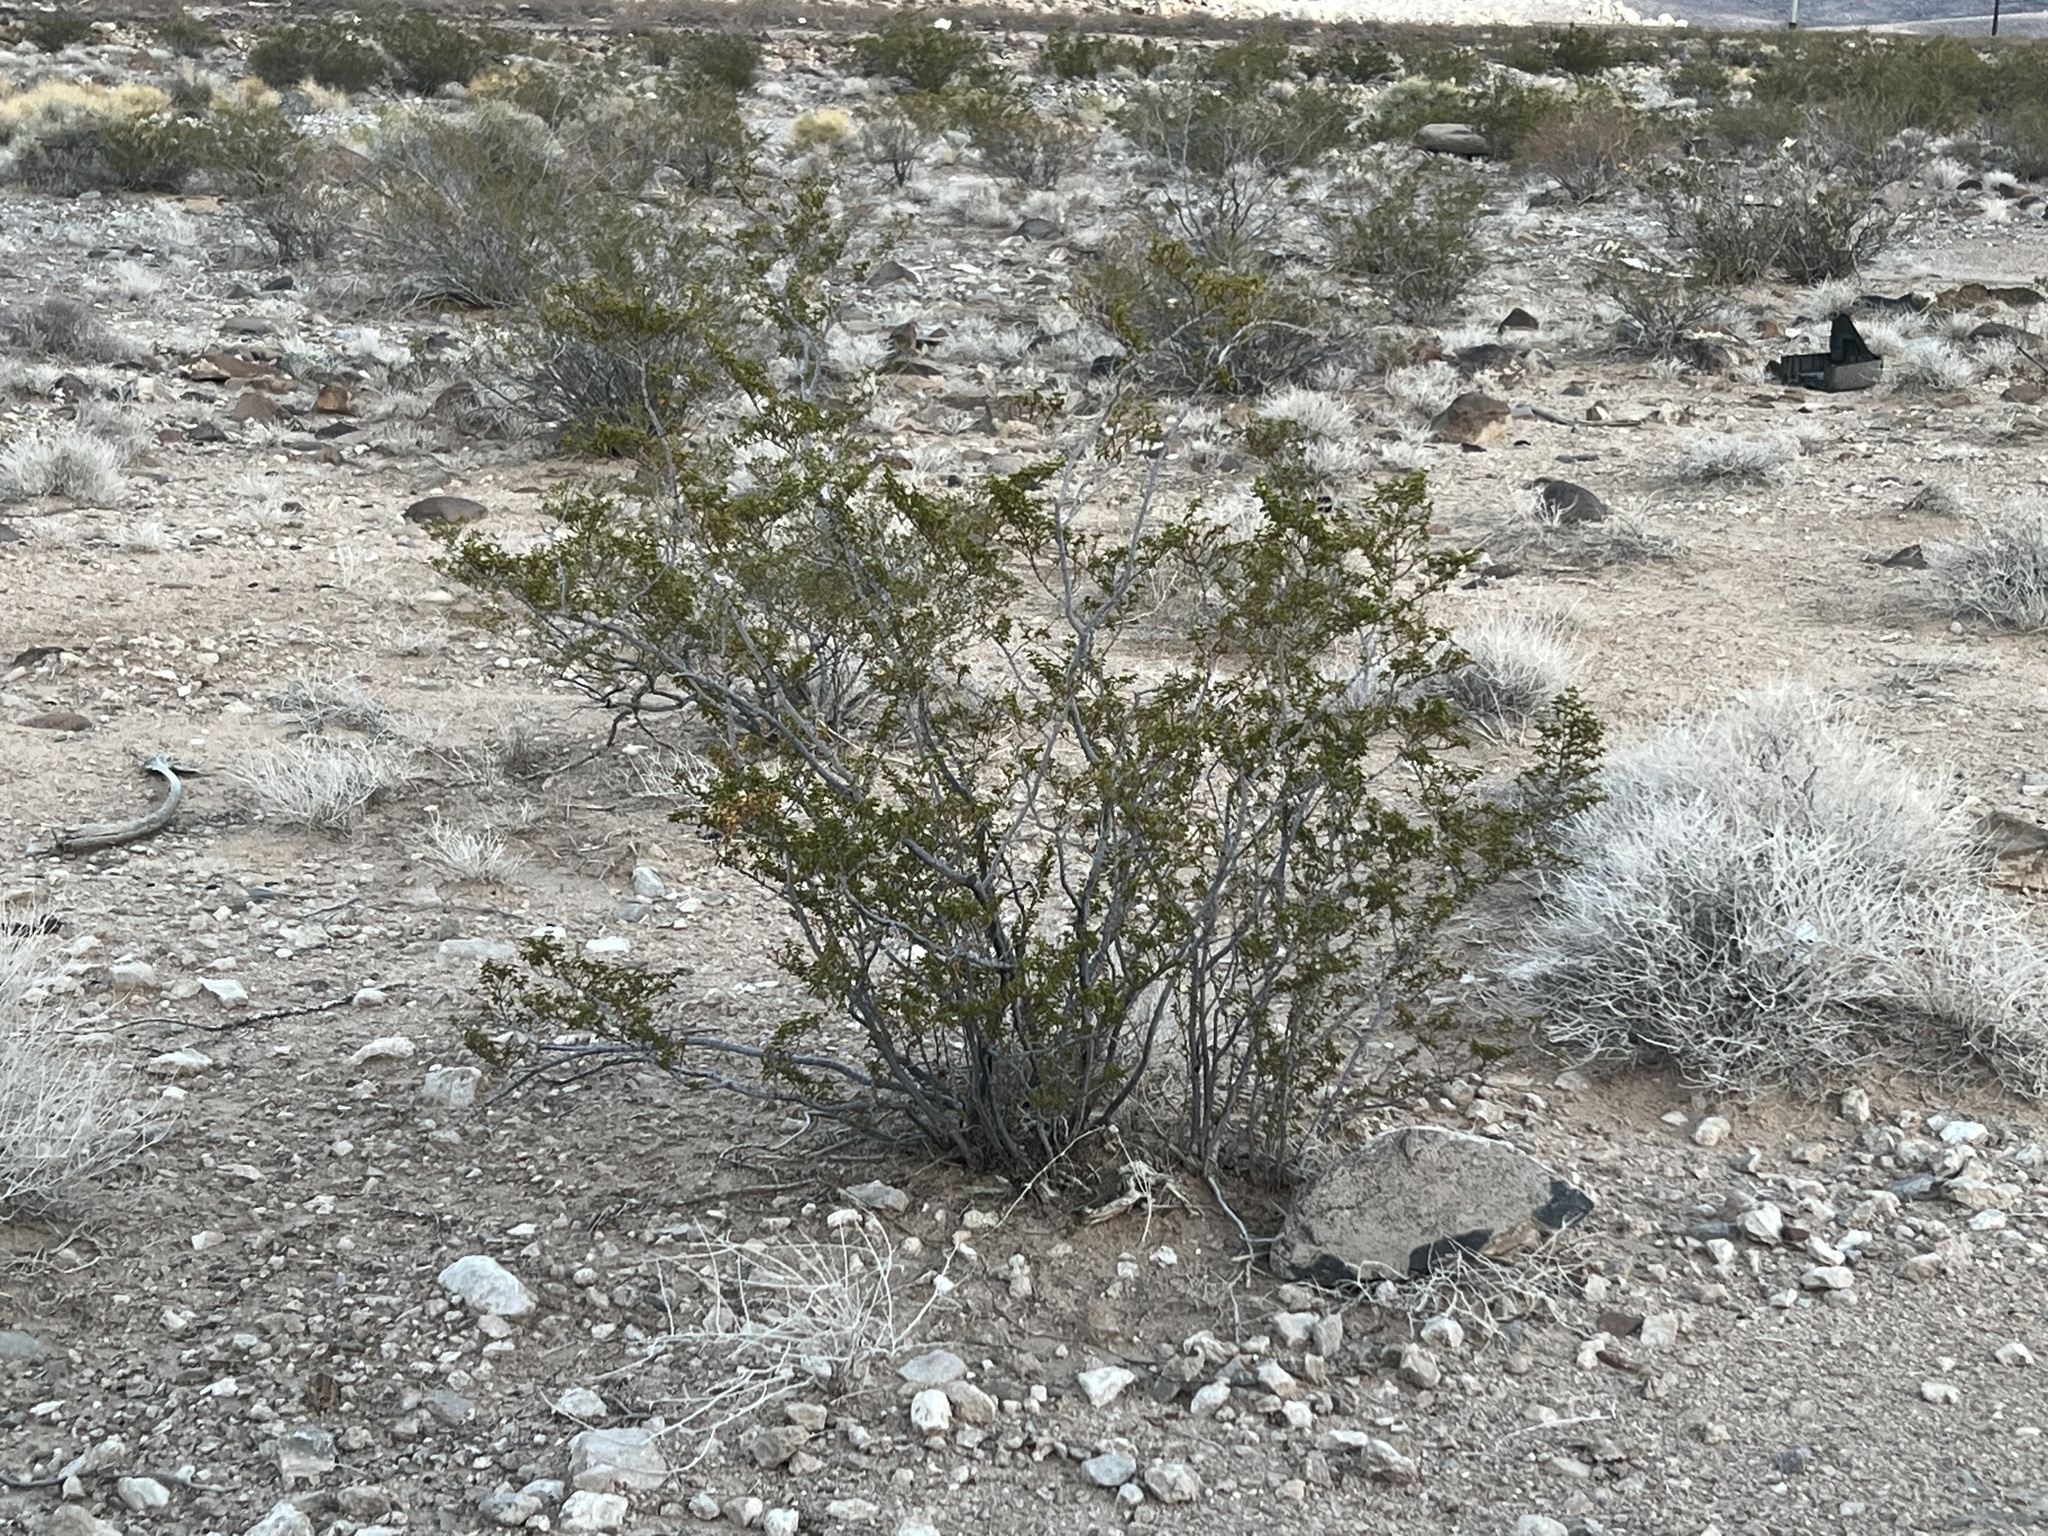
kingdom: Plantae
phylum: Tracheophyta
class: Magnoliopsida
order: Zygophyllales
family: Zygophyllaceae
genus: Larrea
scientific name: Larrea tridentata
